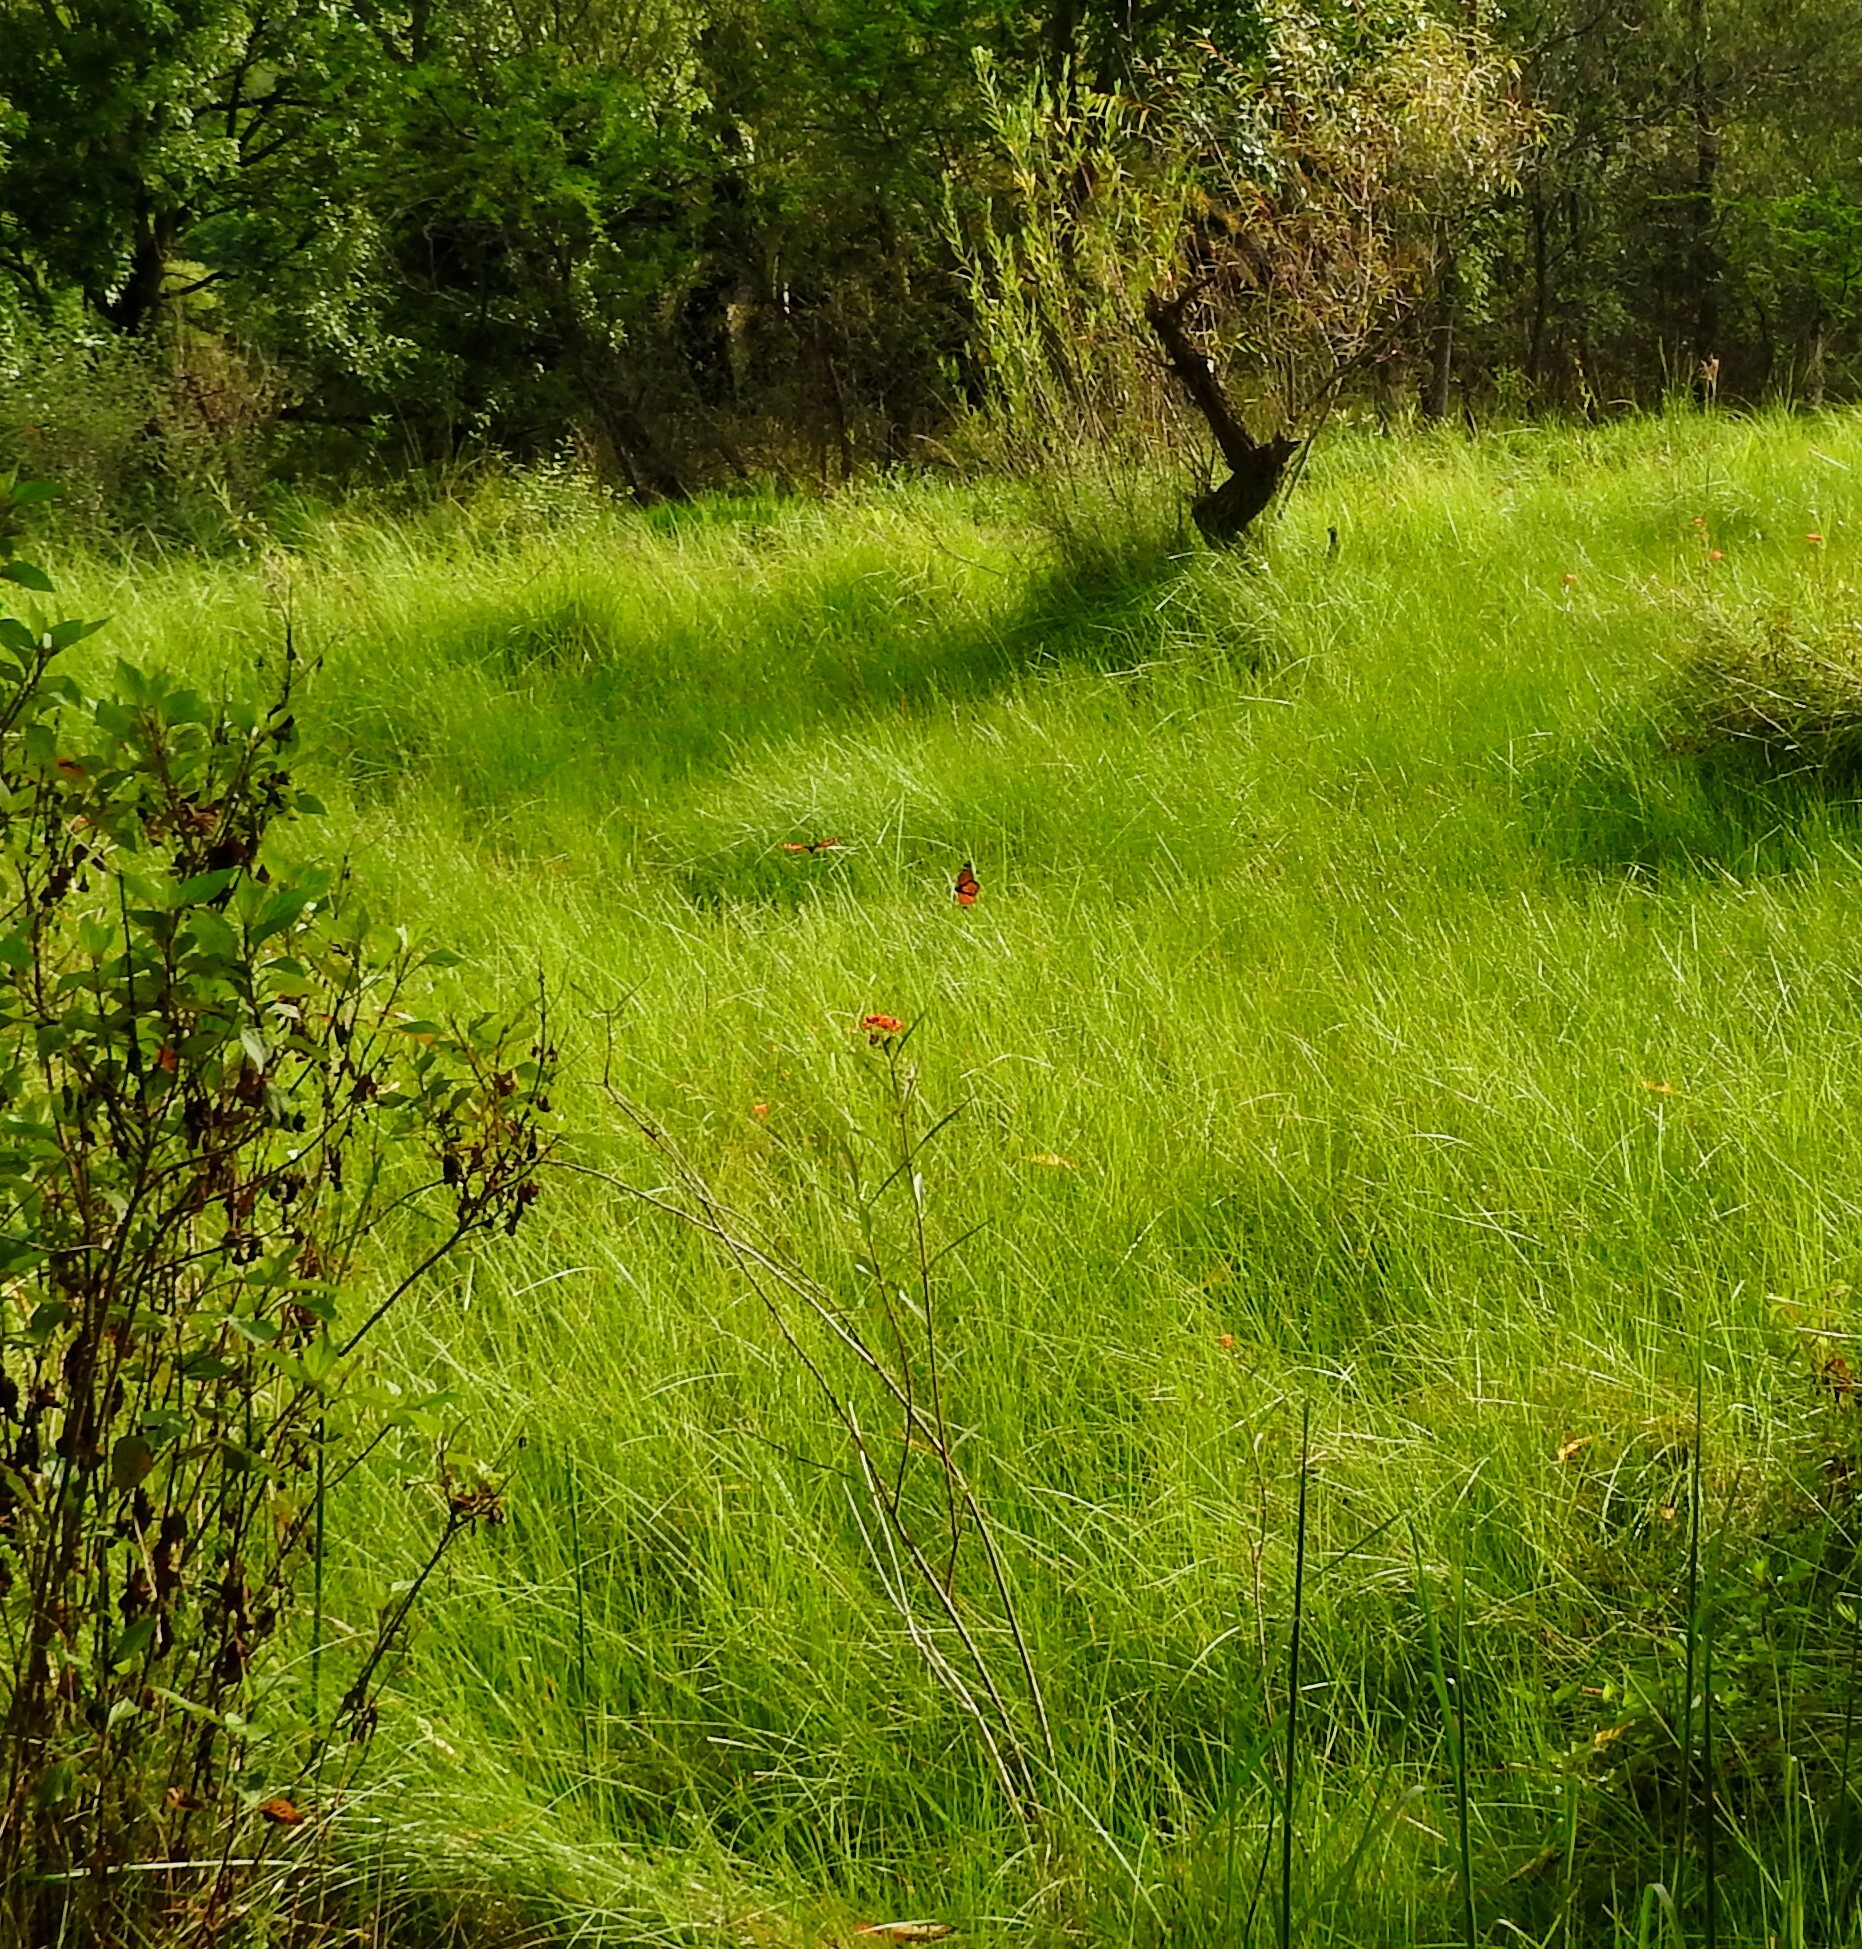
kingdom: Animalia
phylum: Arthropoda
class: Insecta
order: Lepidoptera
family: Nymphalidae
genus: Danaus
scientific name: Danaus plexippus
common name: Monarch
